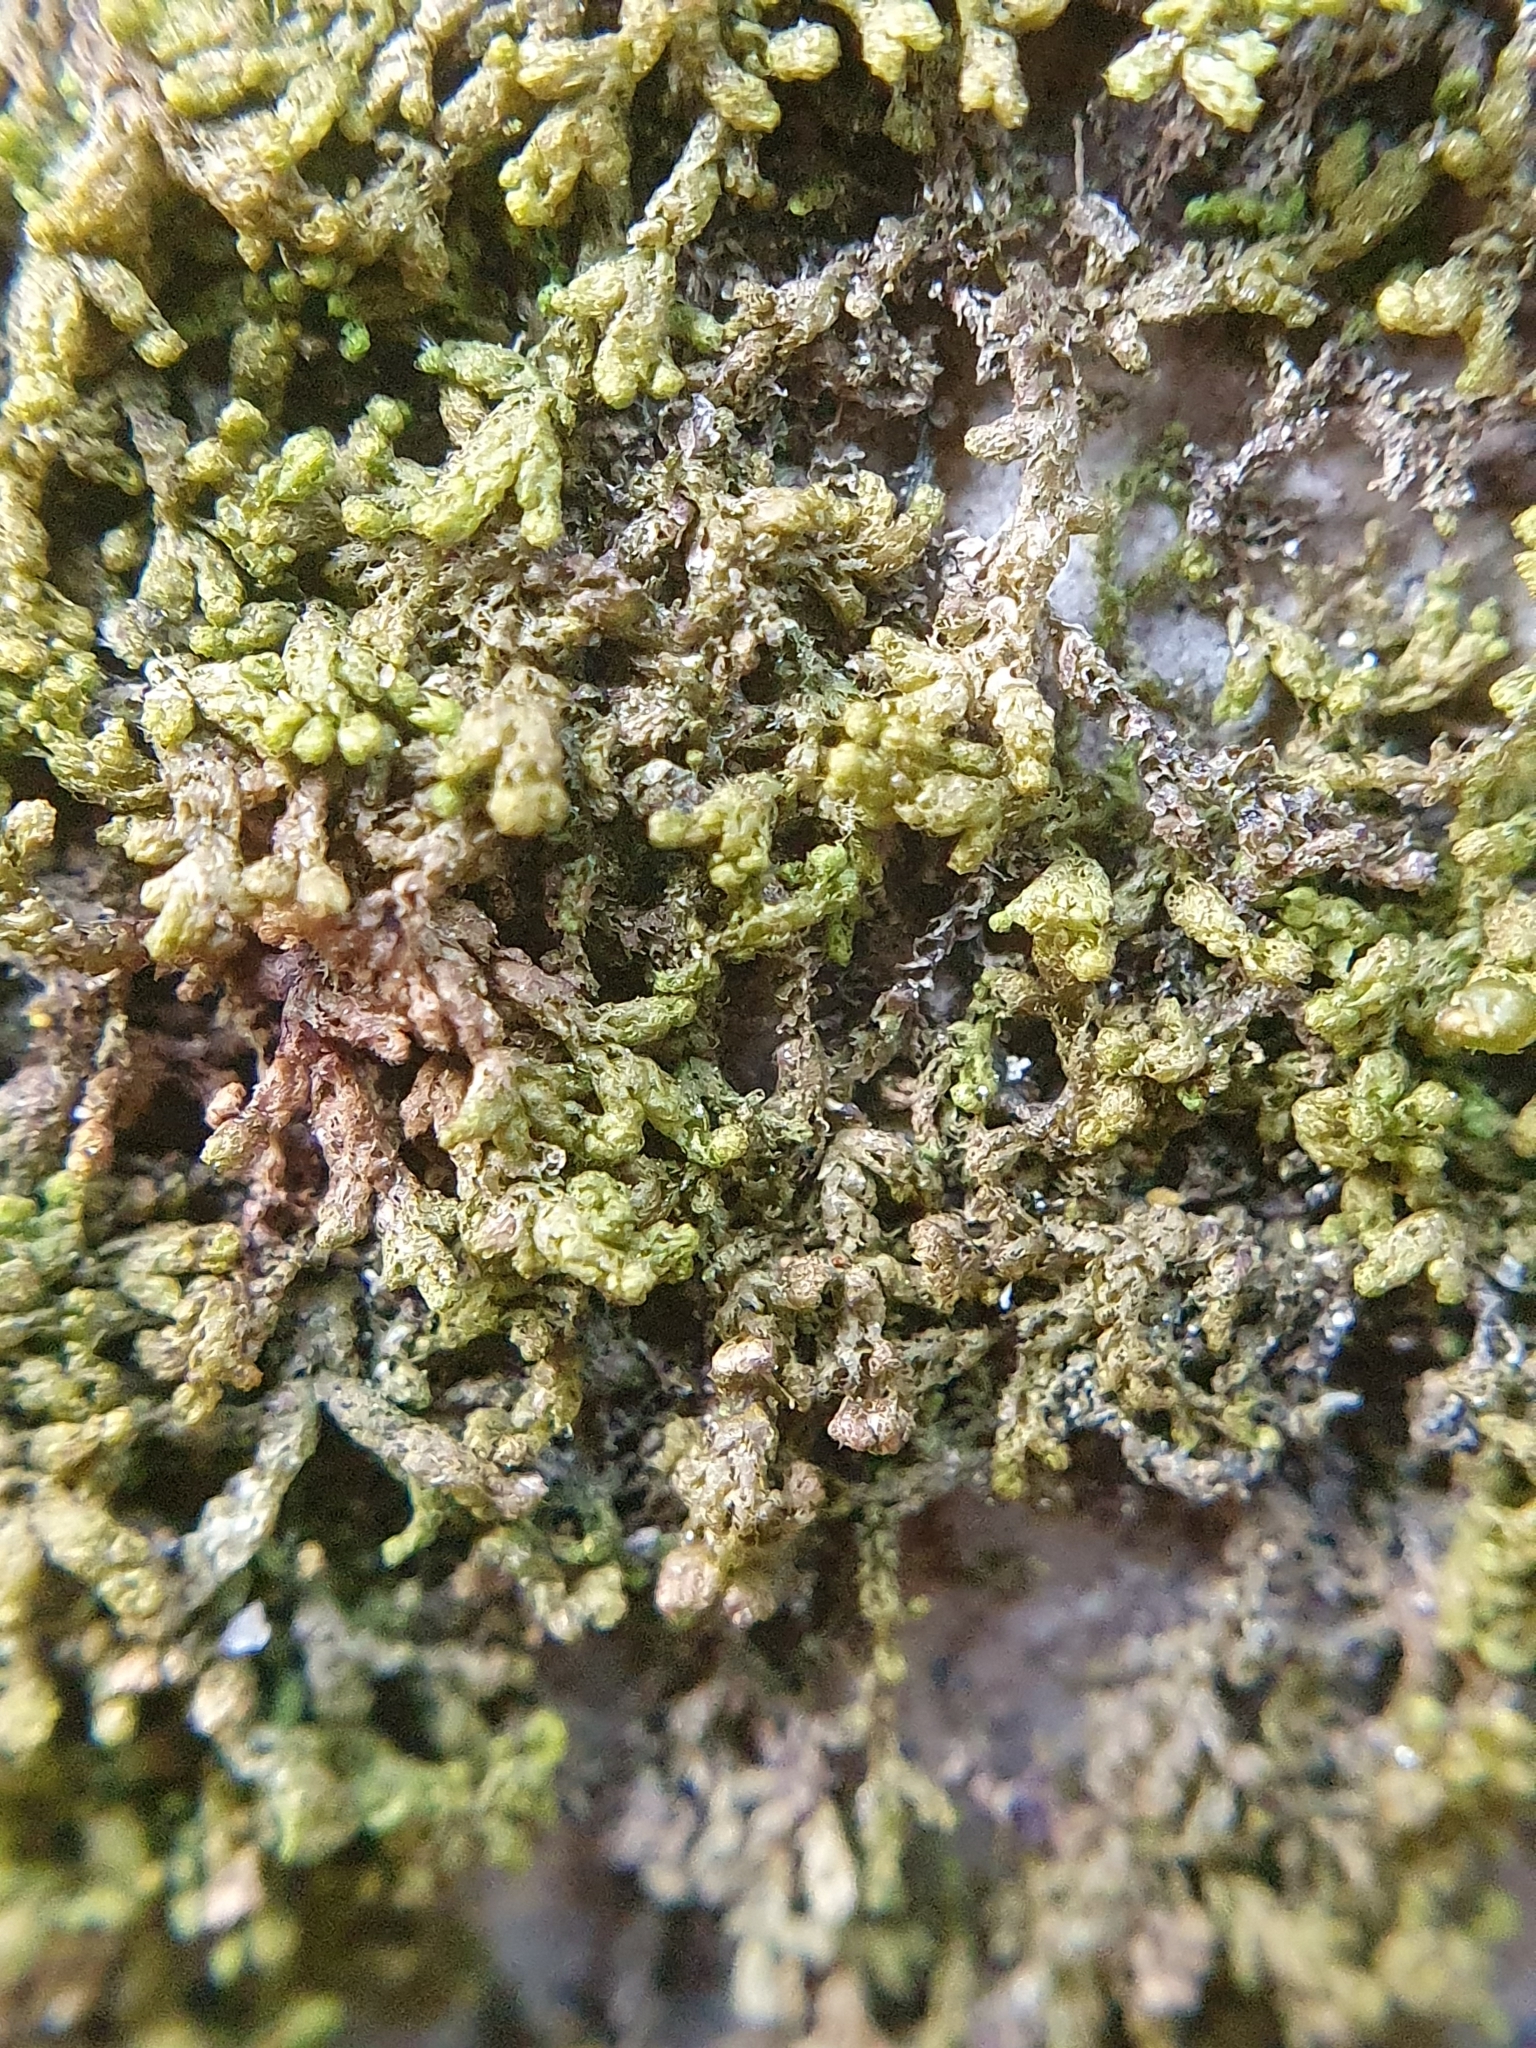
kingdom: Plantae
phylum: Marchantiophyta
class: Jungermanniopsida
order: Ptilidiales
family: Ptilidiaceae
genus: Ptilidium
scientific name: Ptilidium pulcherrimum
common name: Tree fringewort
